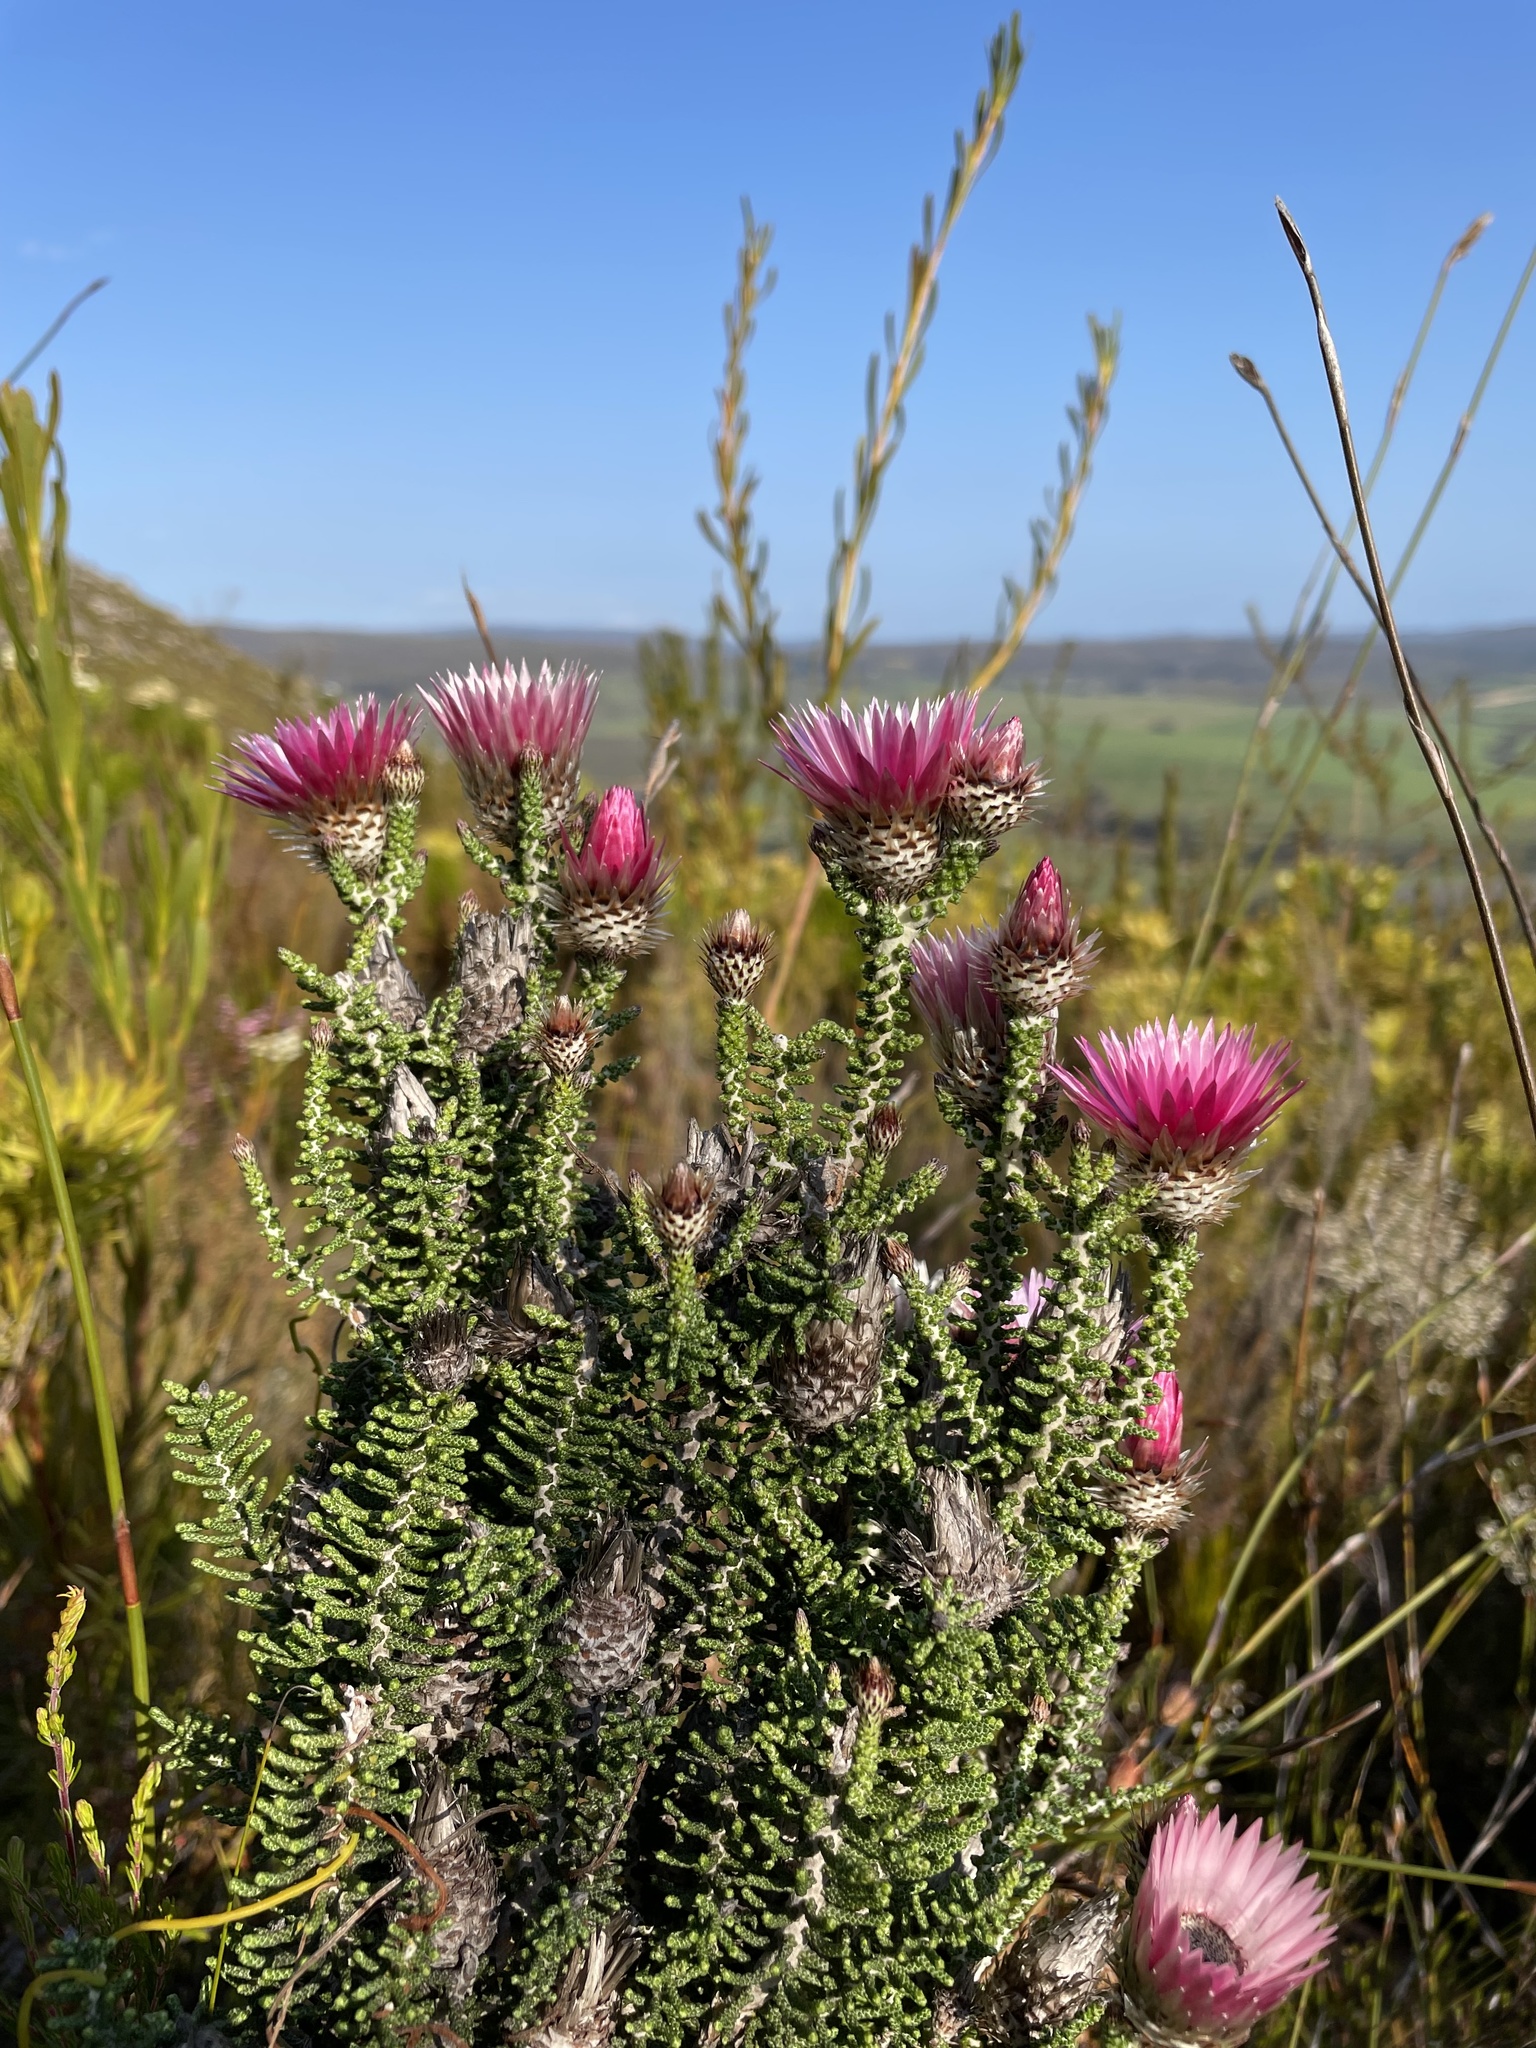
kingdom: Plantae
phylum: Tracheophyta
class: Magnoliopsida
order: Asterales
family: Asteraceae
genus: Phaenocoma
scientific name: Phaenocoma prolifera
